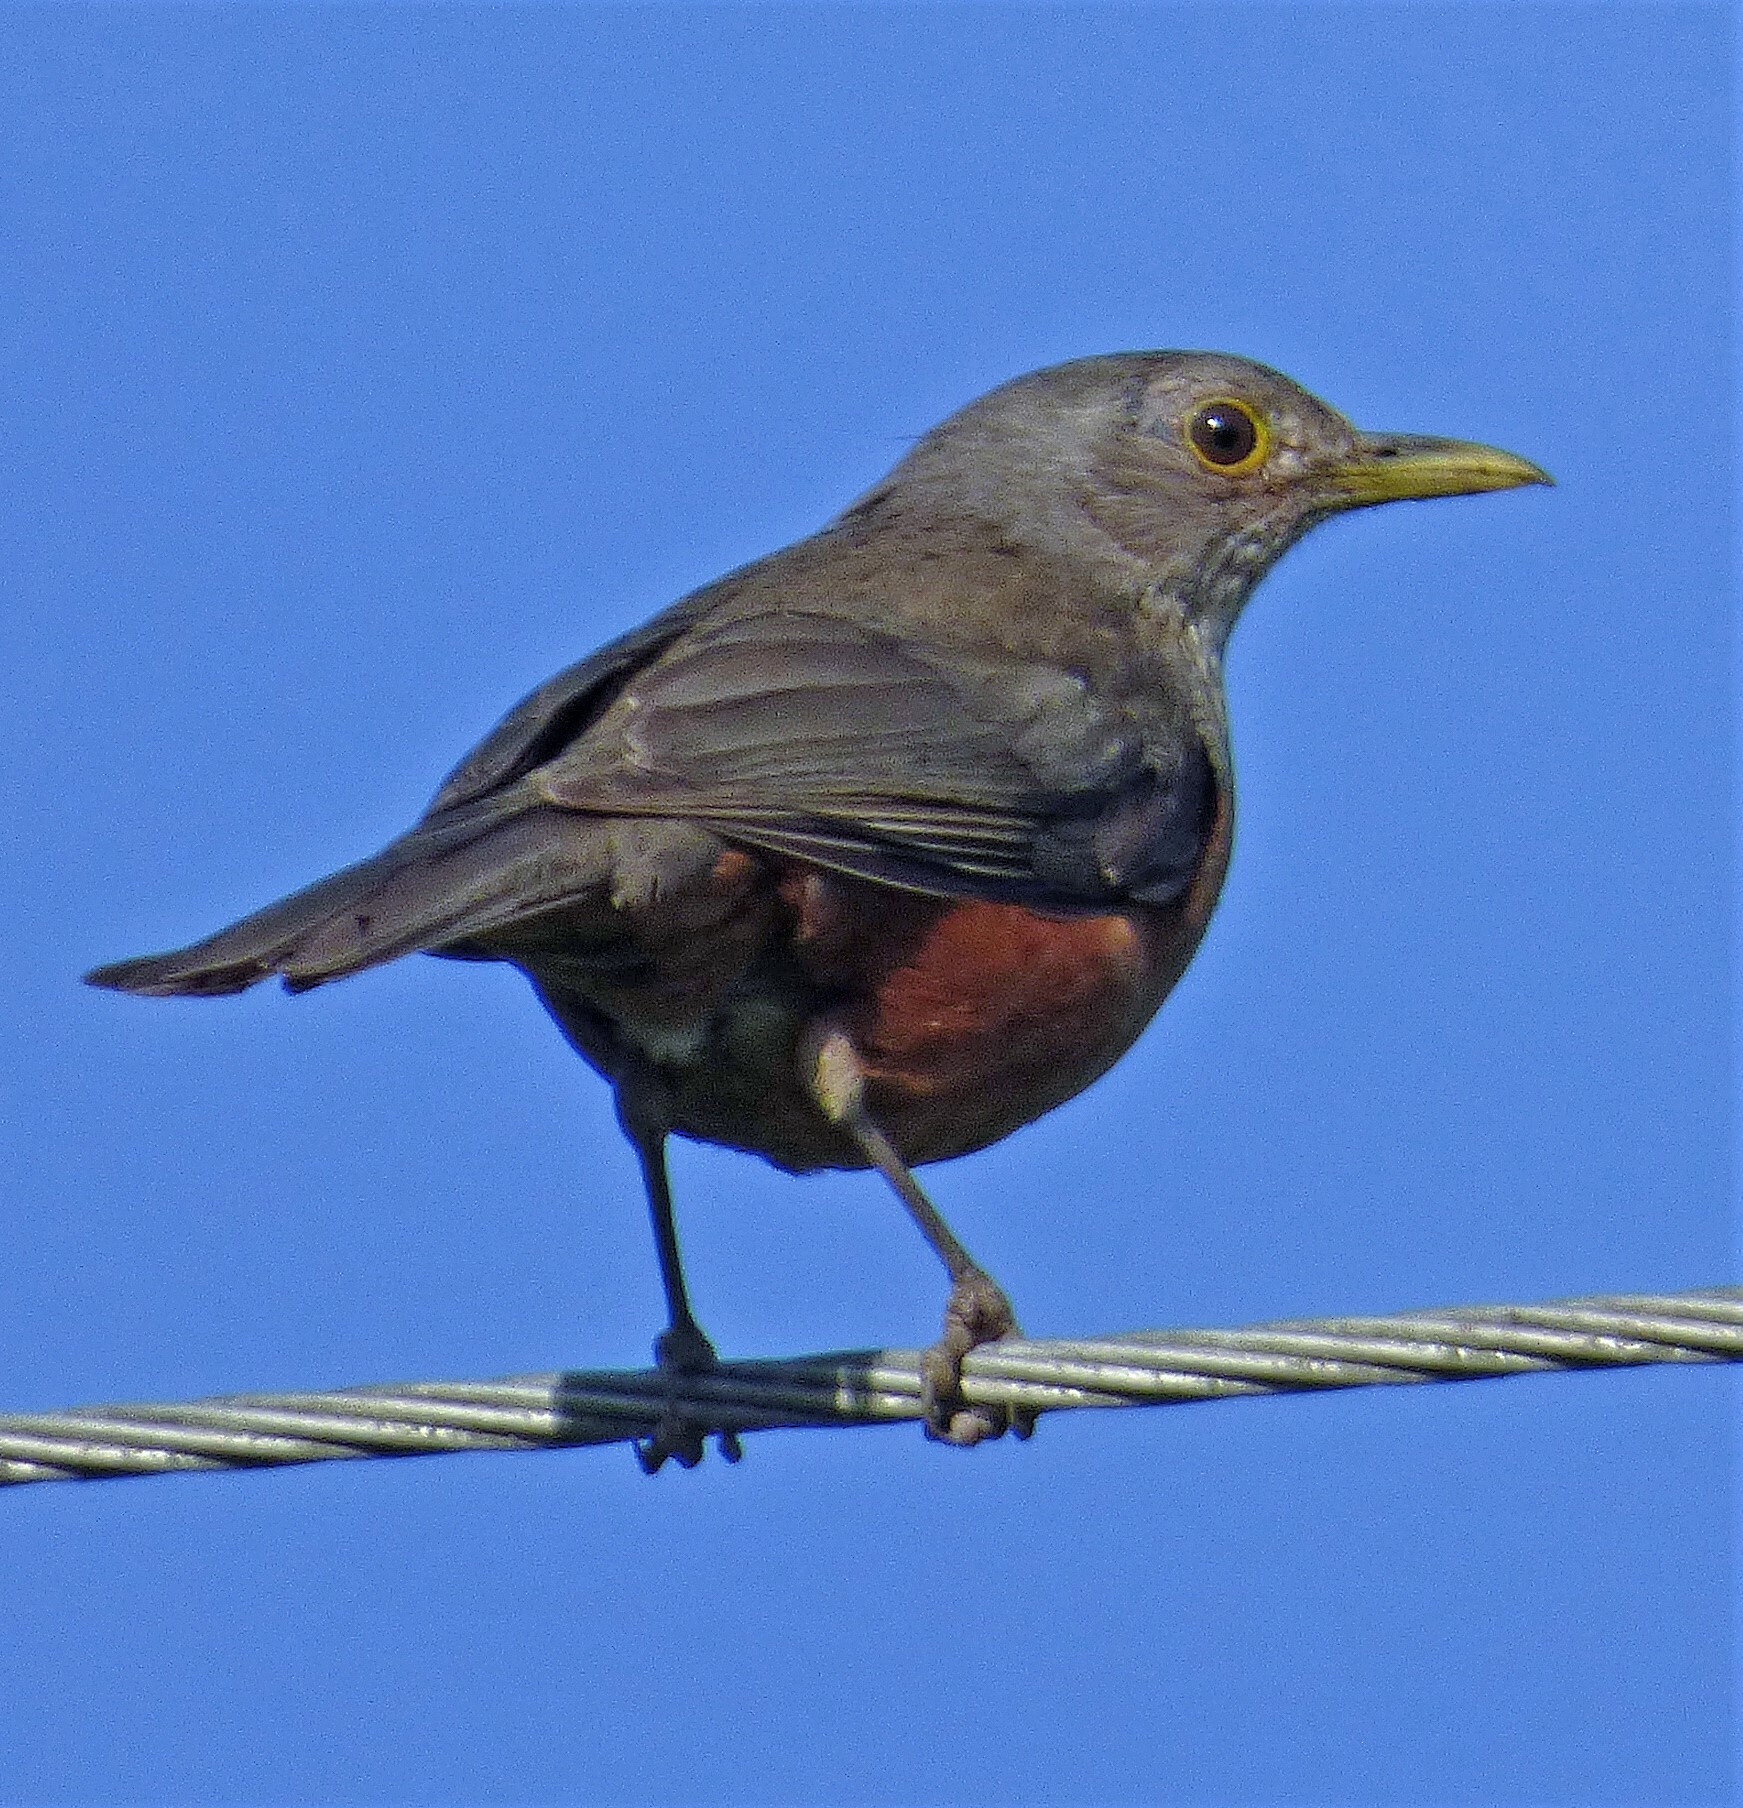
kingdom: Animalia
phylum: Chordata
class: Aves
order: Passeriformes
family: Turdidae
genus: Turdus
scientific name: Turdus rufiventris
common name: Rufous-bellied thrush
